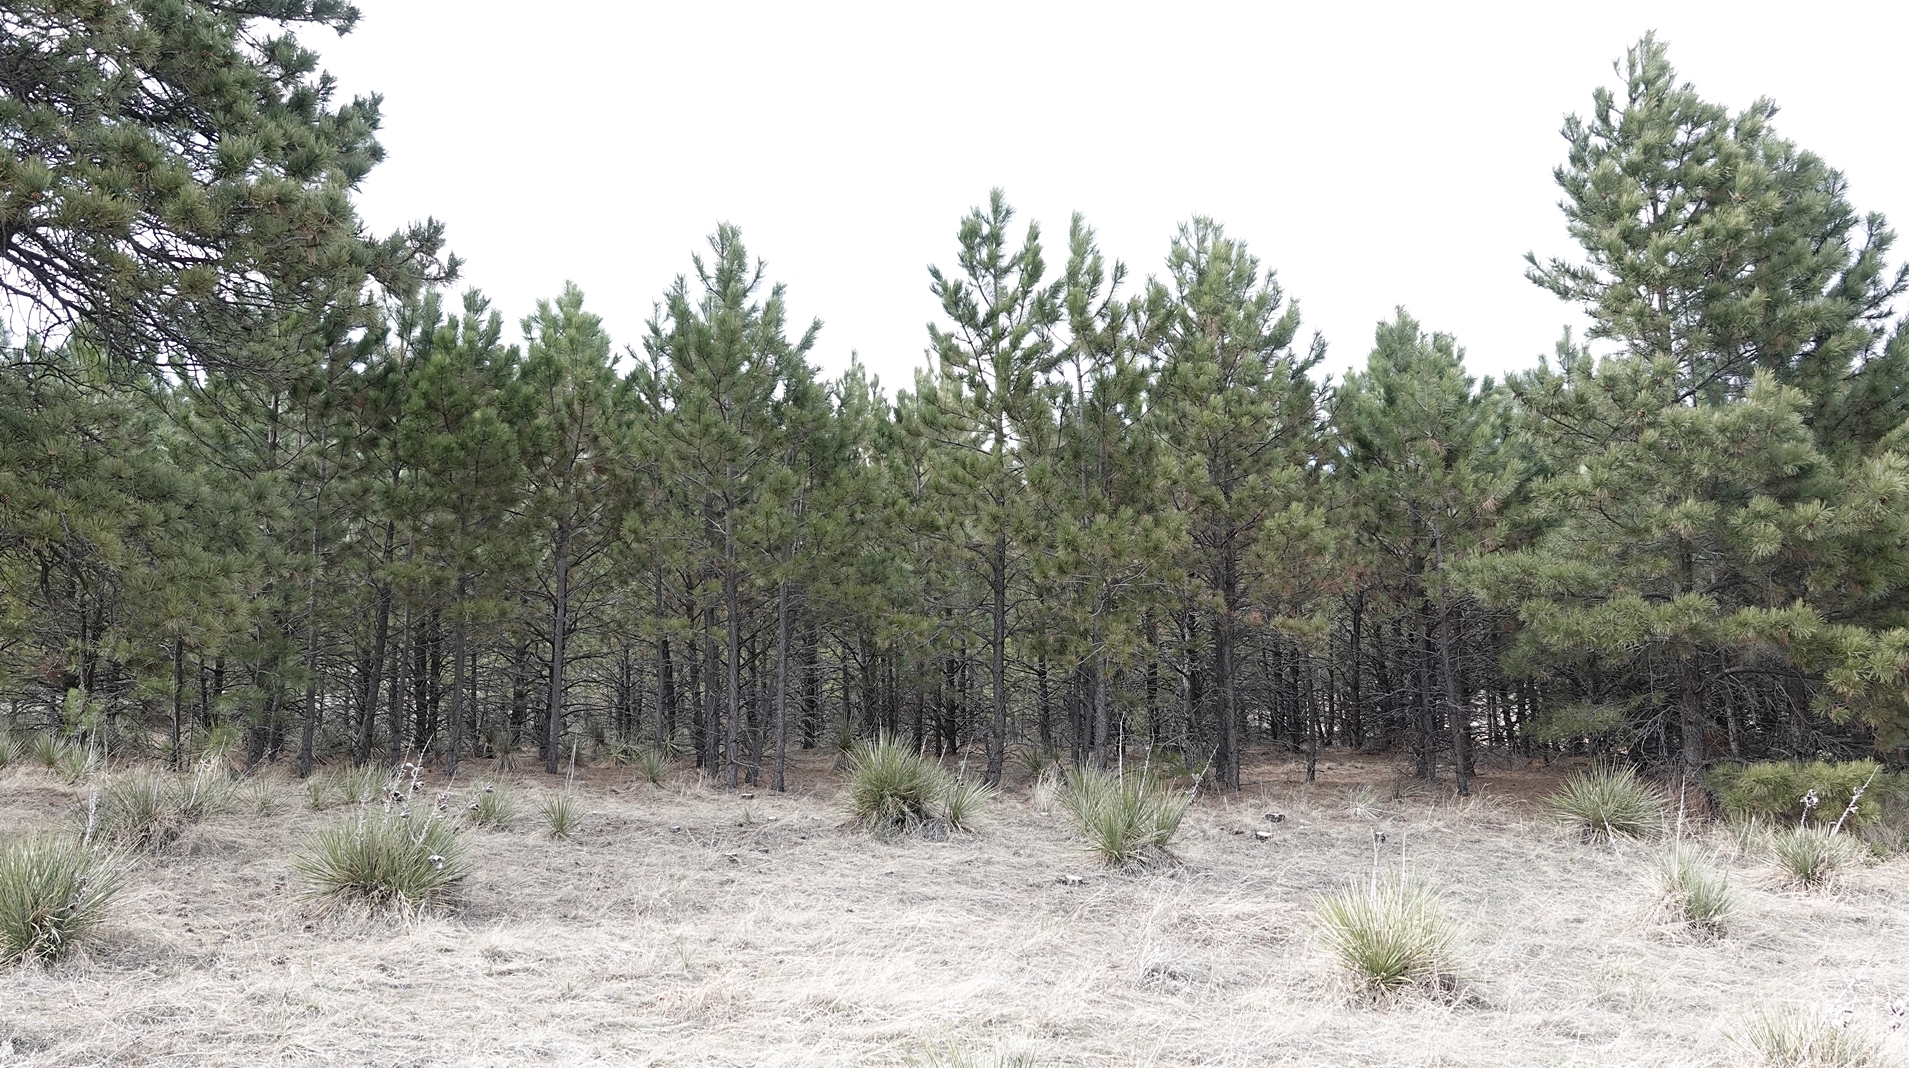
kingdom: Plantae
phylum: Tracheophyta
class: Pinopsida
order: Pinales
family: Pinaceae
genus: Pinus
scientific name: Pinus ponderosa
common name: Western yellow-pine
